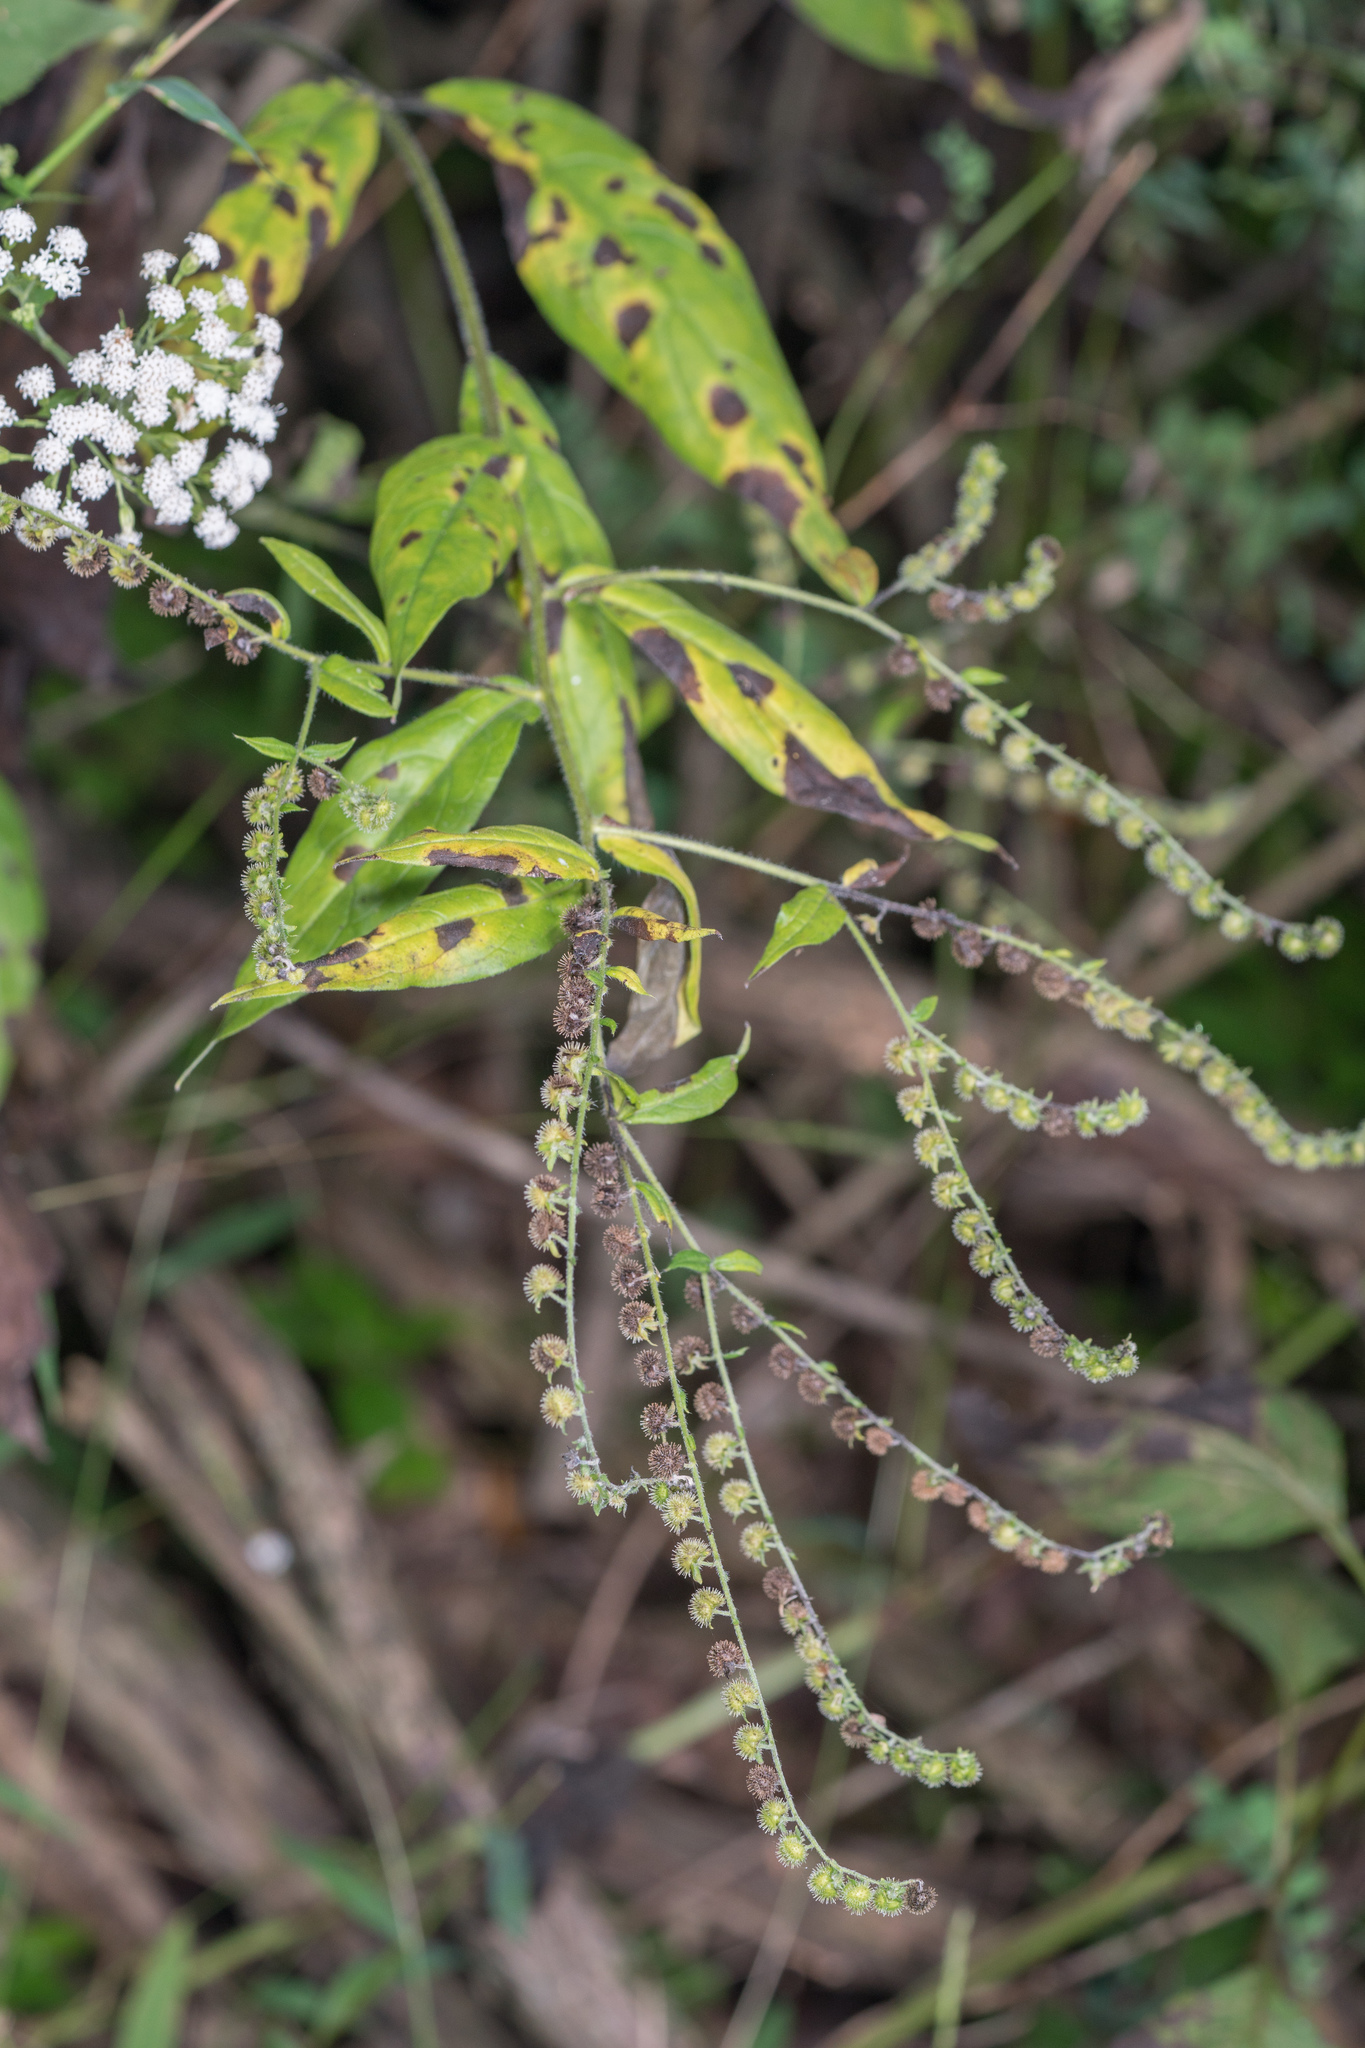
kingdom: Plantae
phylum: Tracheophyta
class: Magnoliopsida
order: Boraginales
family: Boraginaceae
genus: Hackelia
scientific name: Hackelia virginiana
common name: Beggar's-lice
